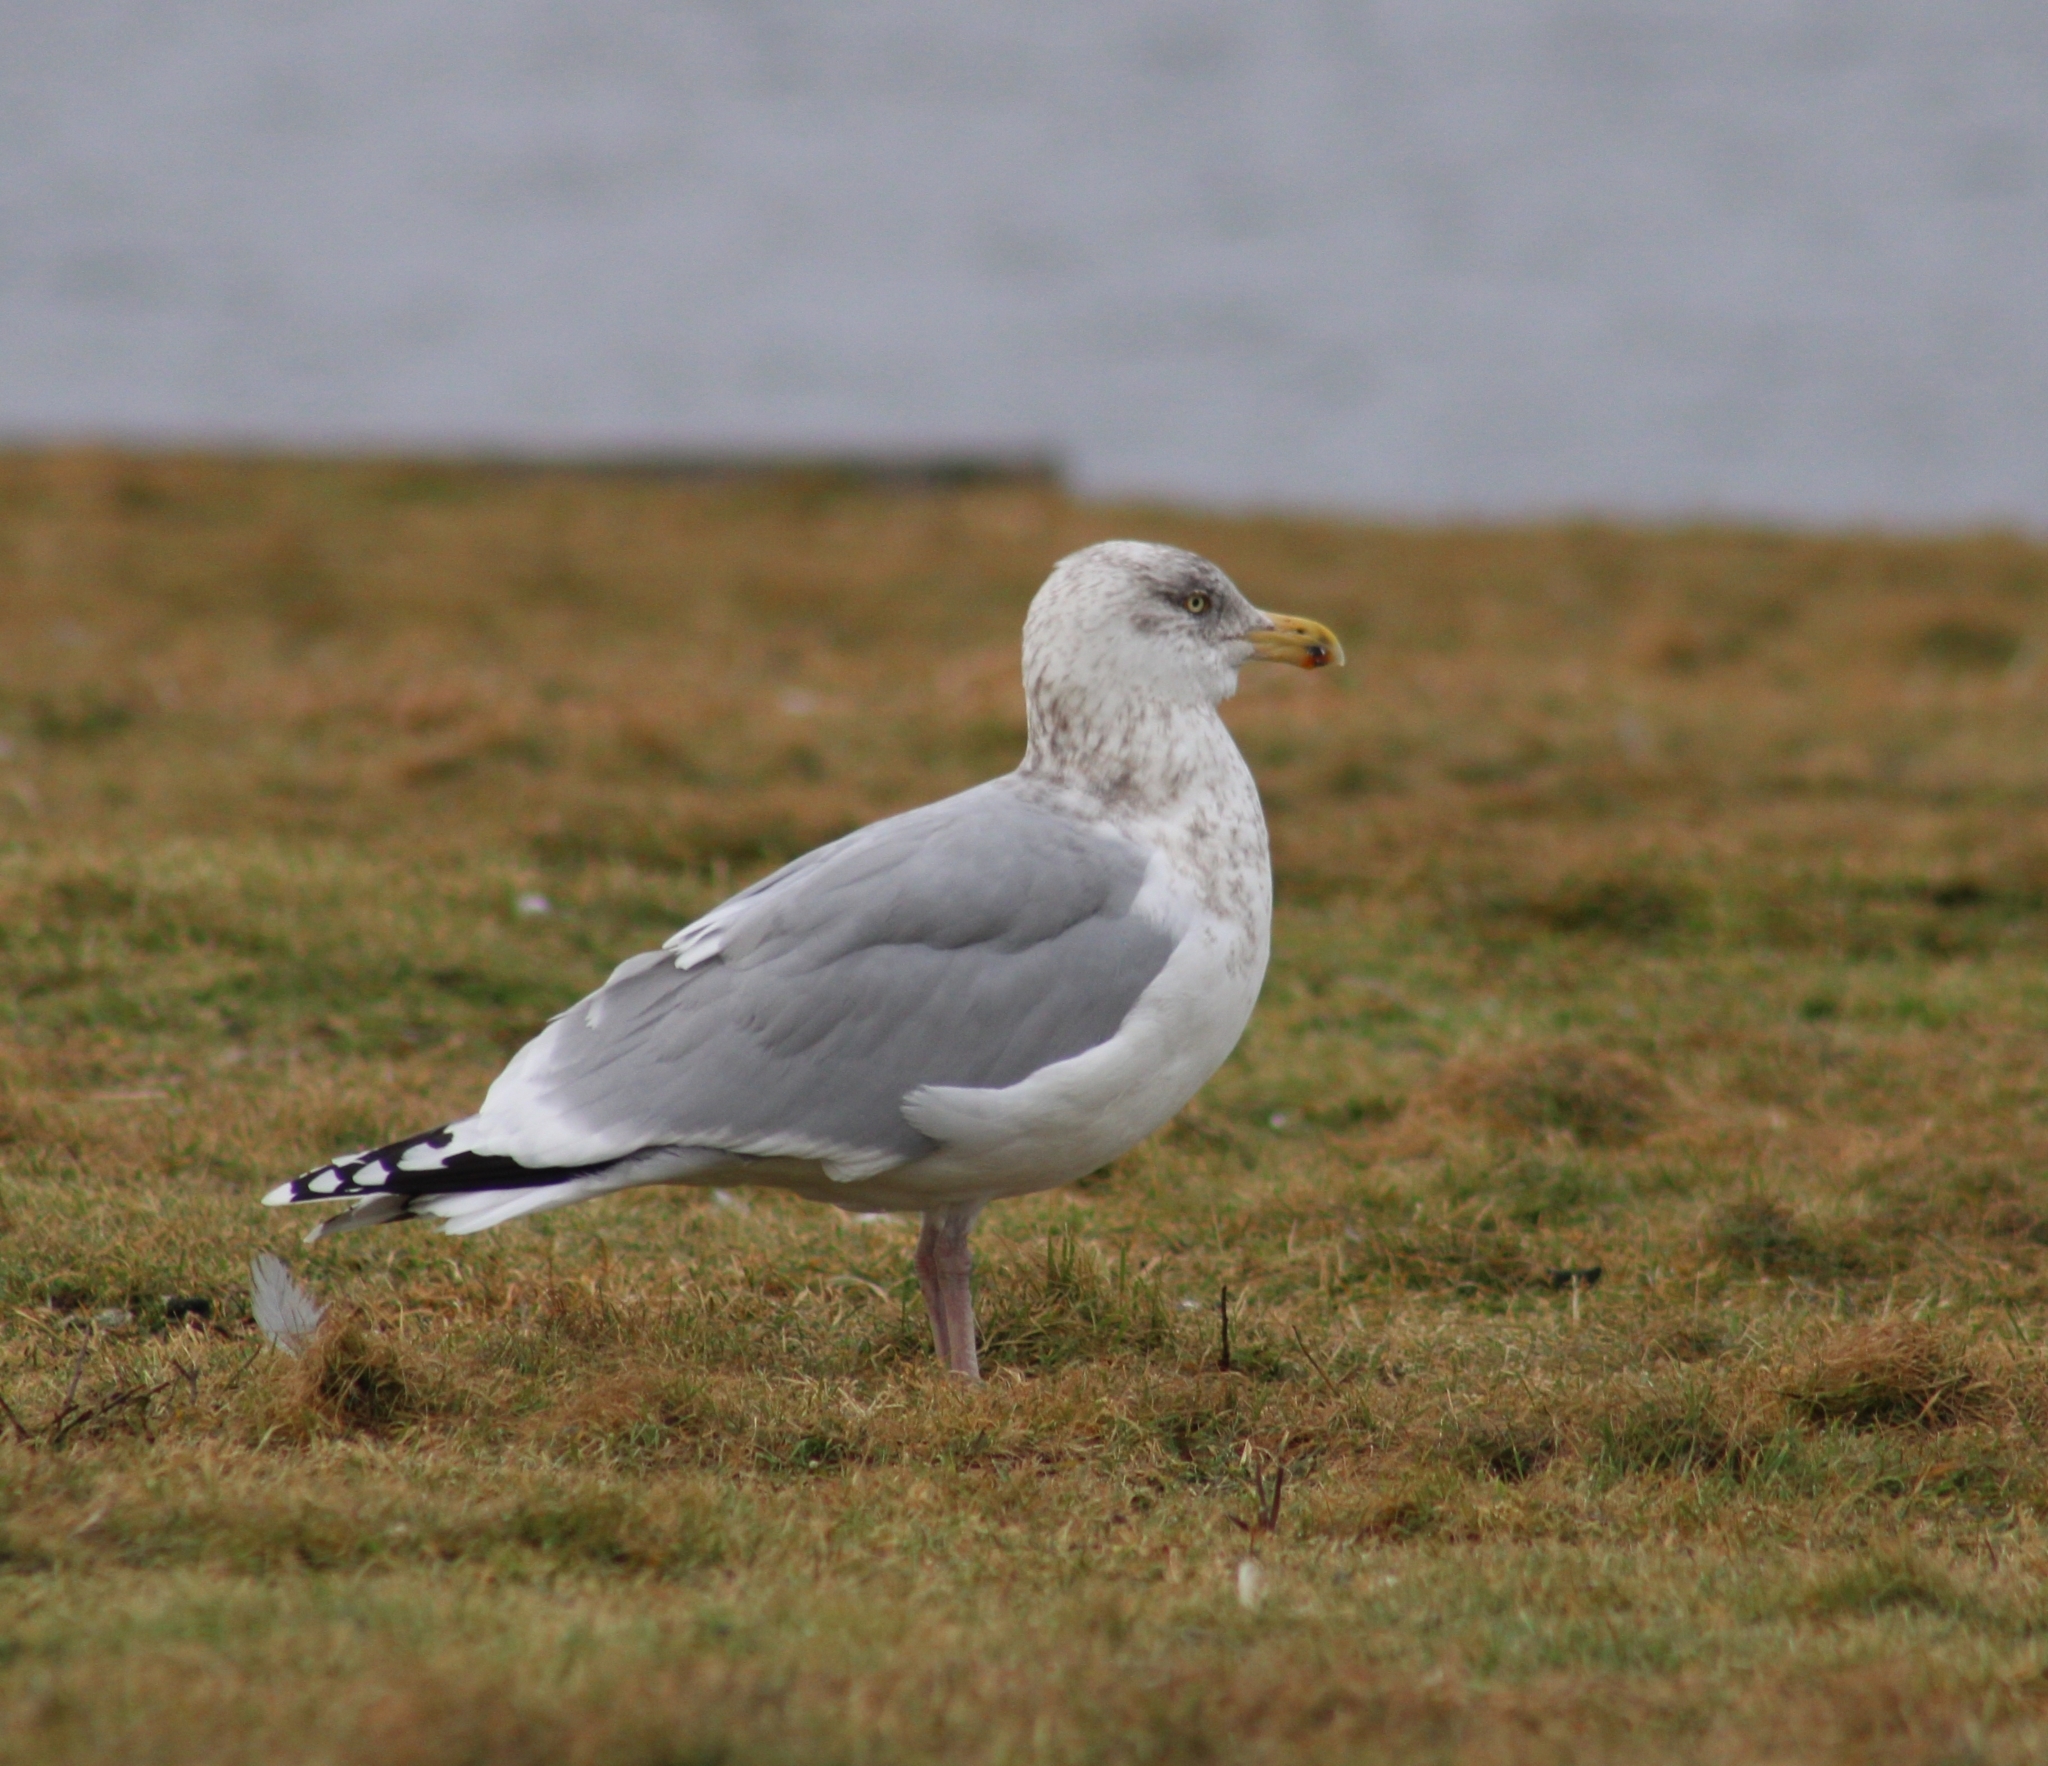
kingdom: Animalia
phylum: Chordata
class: Aves
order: Charadriiformes
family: Laridae
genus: Larus
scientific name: Larus argentatus
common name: Herring gull
